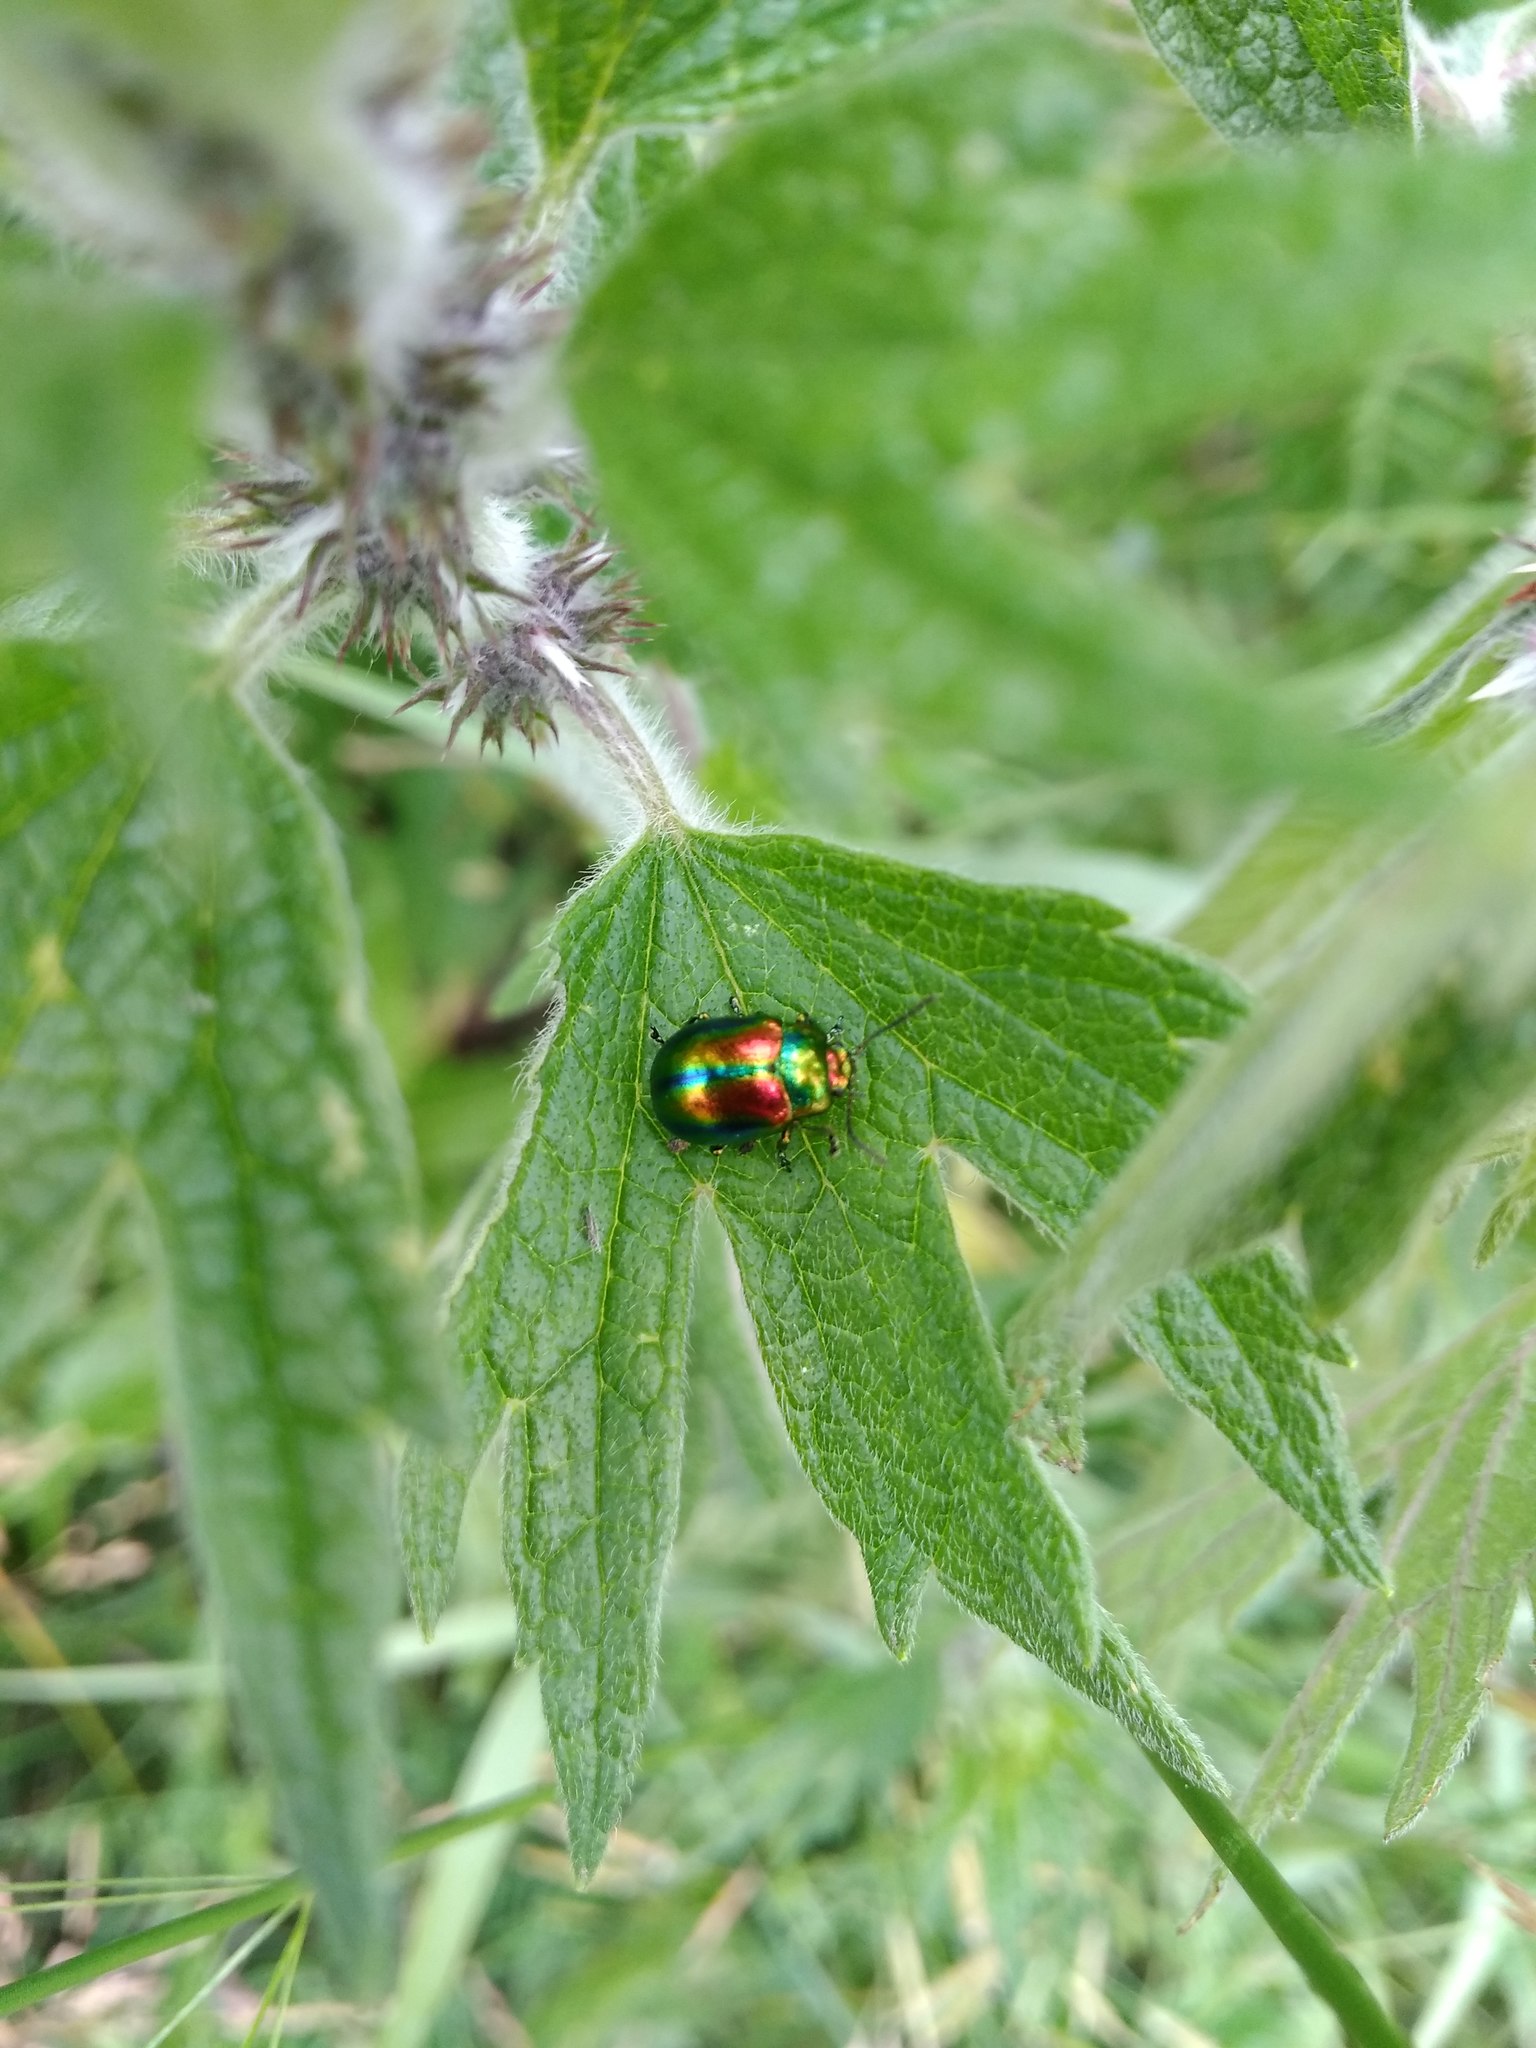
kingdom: Animalia
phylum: Arthropoda
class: Insecta
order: Coleoptera
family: Chrysomelidae
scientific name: Chrysomelidae
